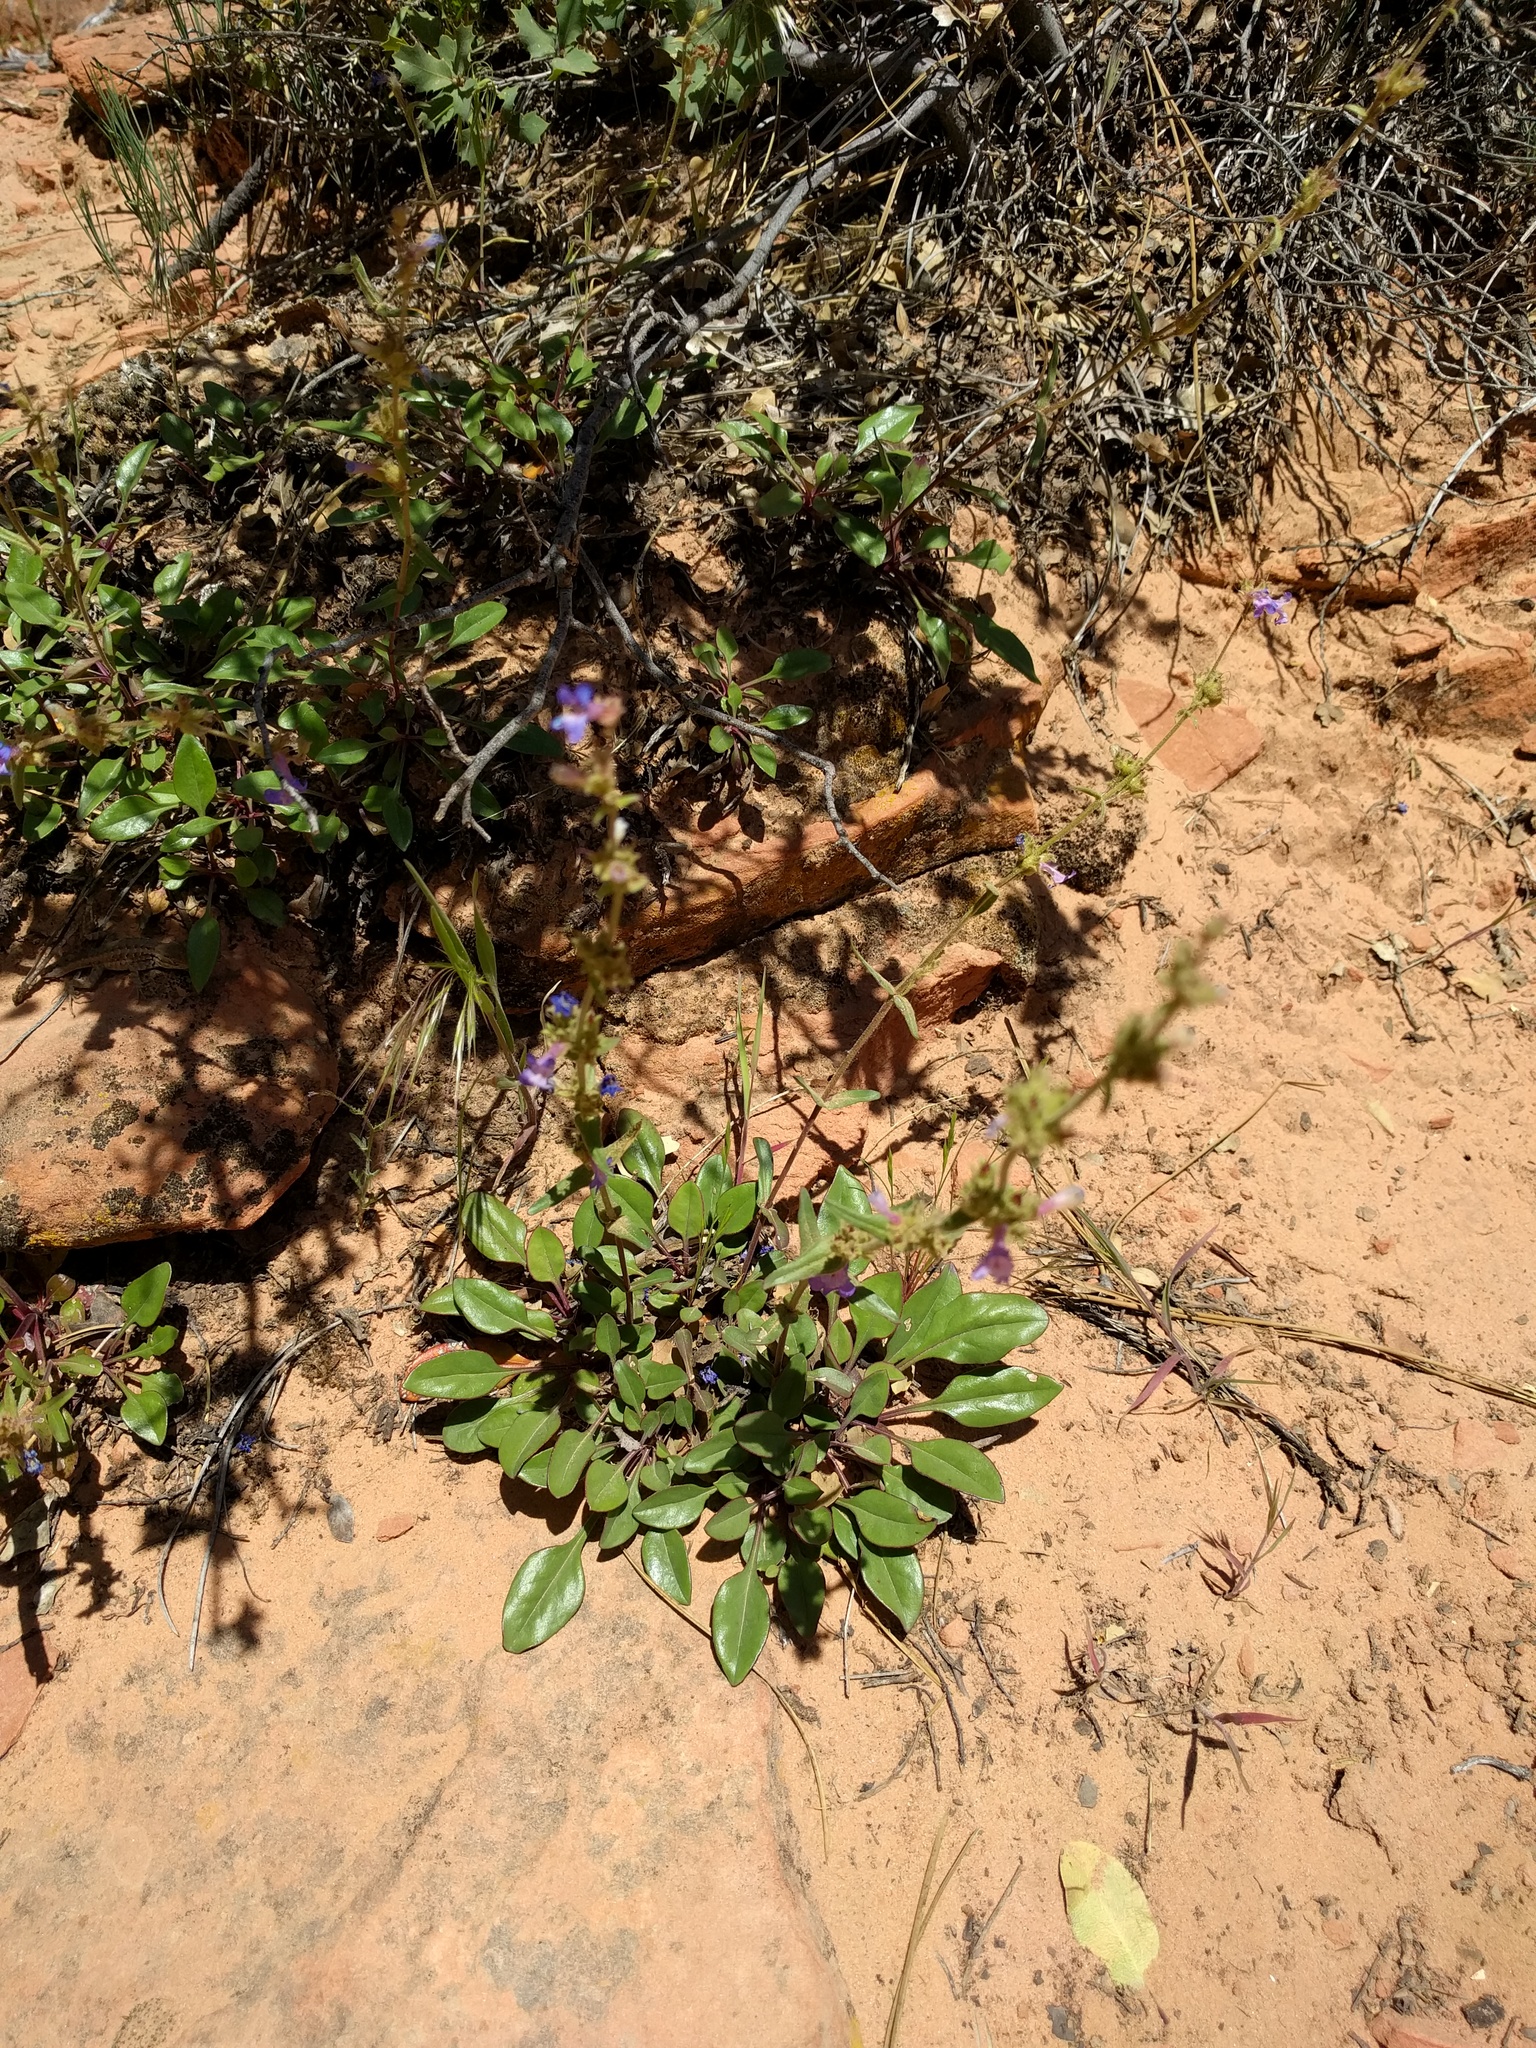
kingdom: Plantae
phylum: Tracheophyta
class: Magnoliopsida
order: Lamiales
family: Plantaginaceae
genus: Penstemon
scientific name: Penstemon humilis
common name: Low penstemon
